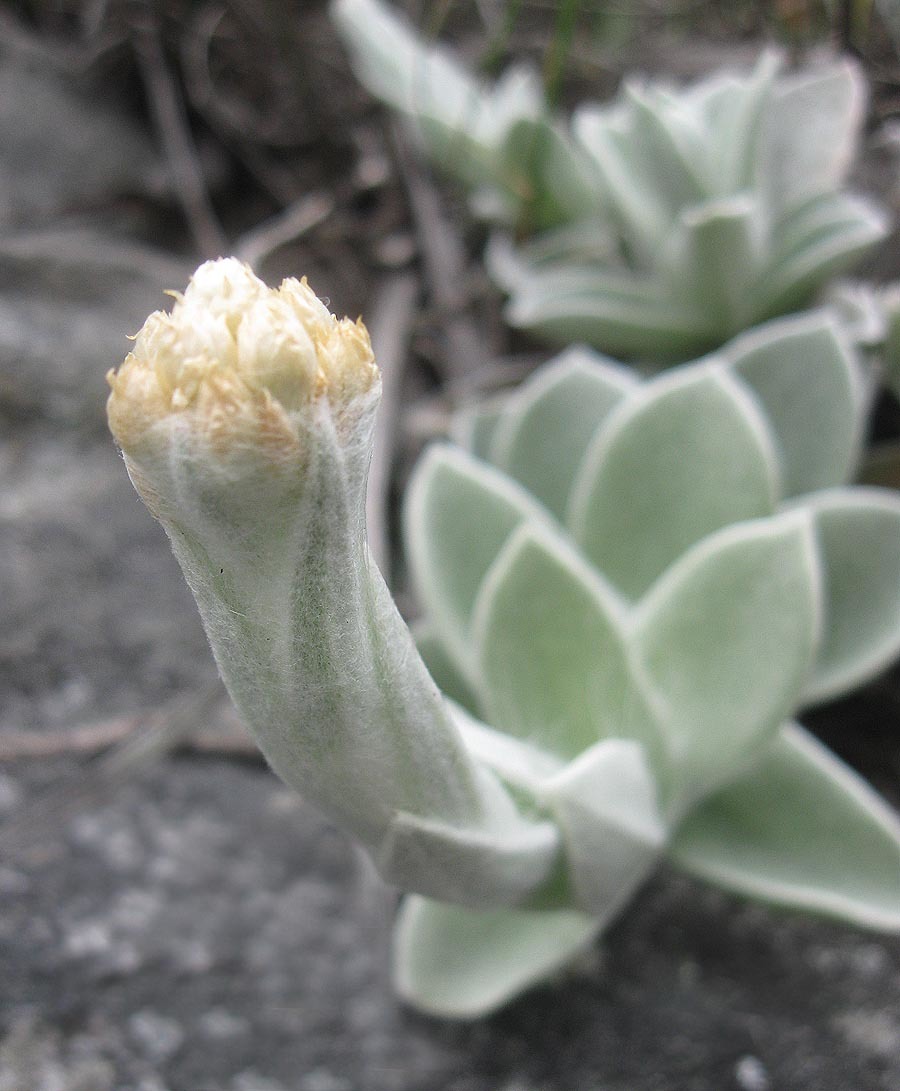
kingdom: Plantae
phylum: Tracheophyta
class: Magnoliopsida
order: Asterales
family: Asteraceae
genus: Helichrysum
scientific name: Helichrysum grandiflorum
